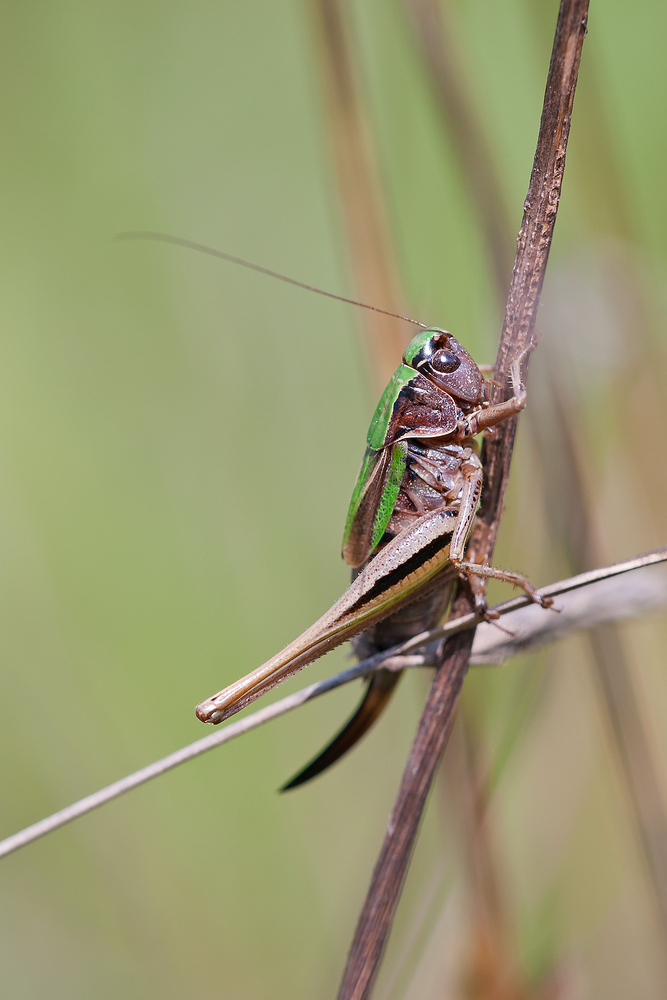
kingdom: Animalia
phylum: Arthropoda
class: Insecta
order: Orthoptera
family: Tettigoniidae
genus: Metrioptera
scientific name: Metrioptera brachyptera
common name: Bog bush-cricket
